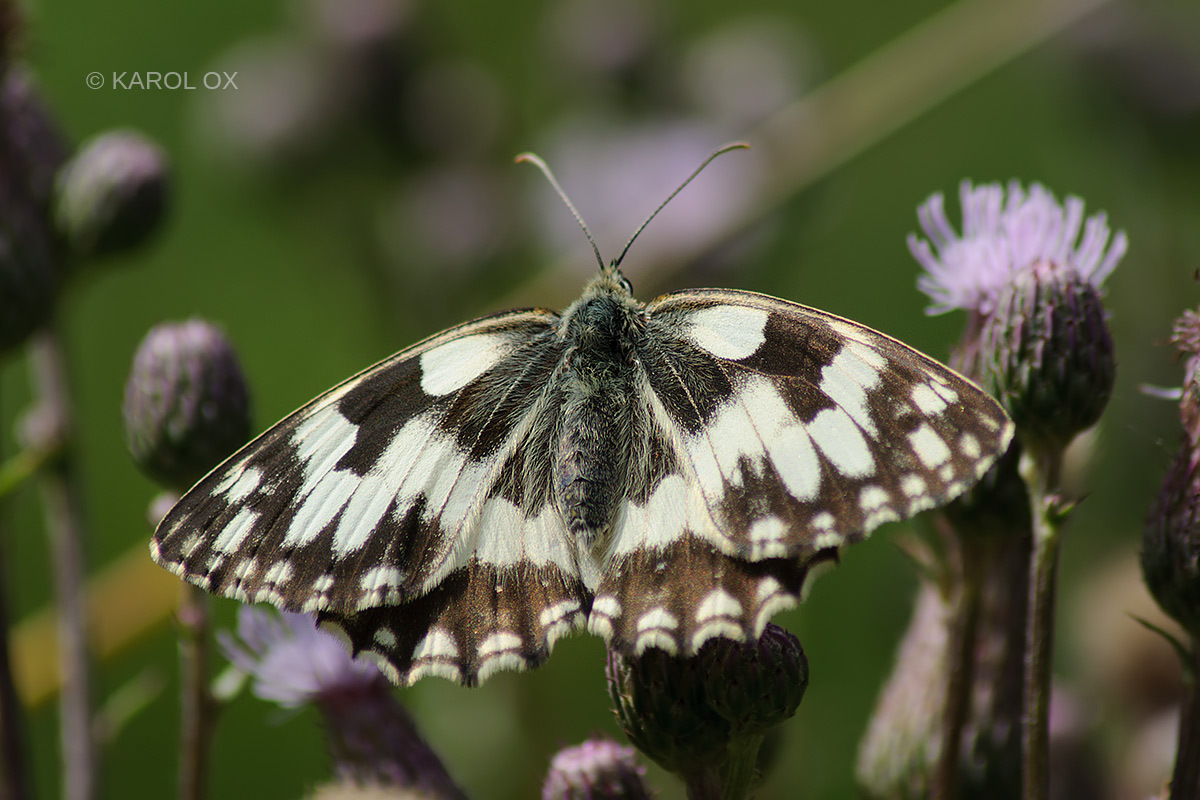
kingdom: Animalia
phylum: Arthropoda
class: Insecta
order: Lepidoptera
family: Nymphalidae
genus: Melanargia
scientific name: Melanargia galathea
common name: Marbled white
